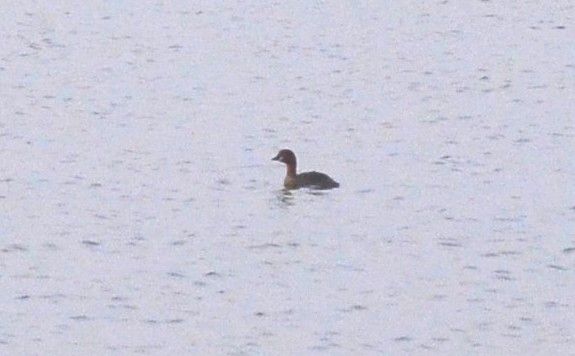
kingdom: Animalia
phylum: Chordata
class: Aves
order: Podicipediformes
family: Podicipedidae
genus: Tachybaptus
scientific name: Tachybaptus ruficollis
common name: Little grebe
